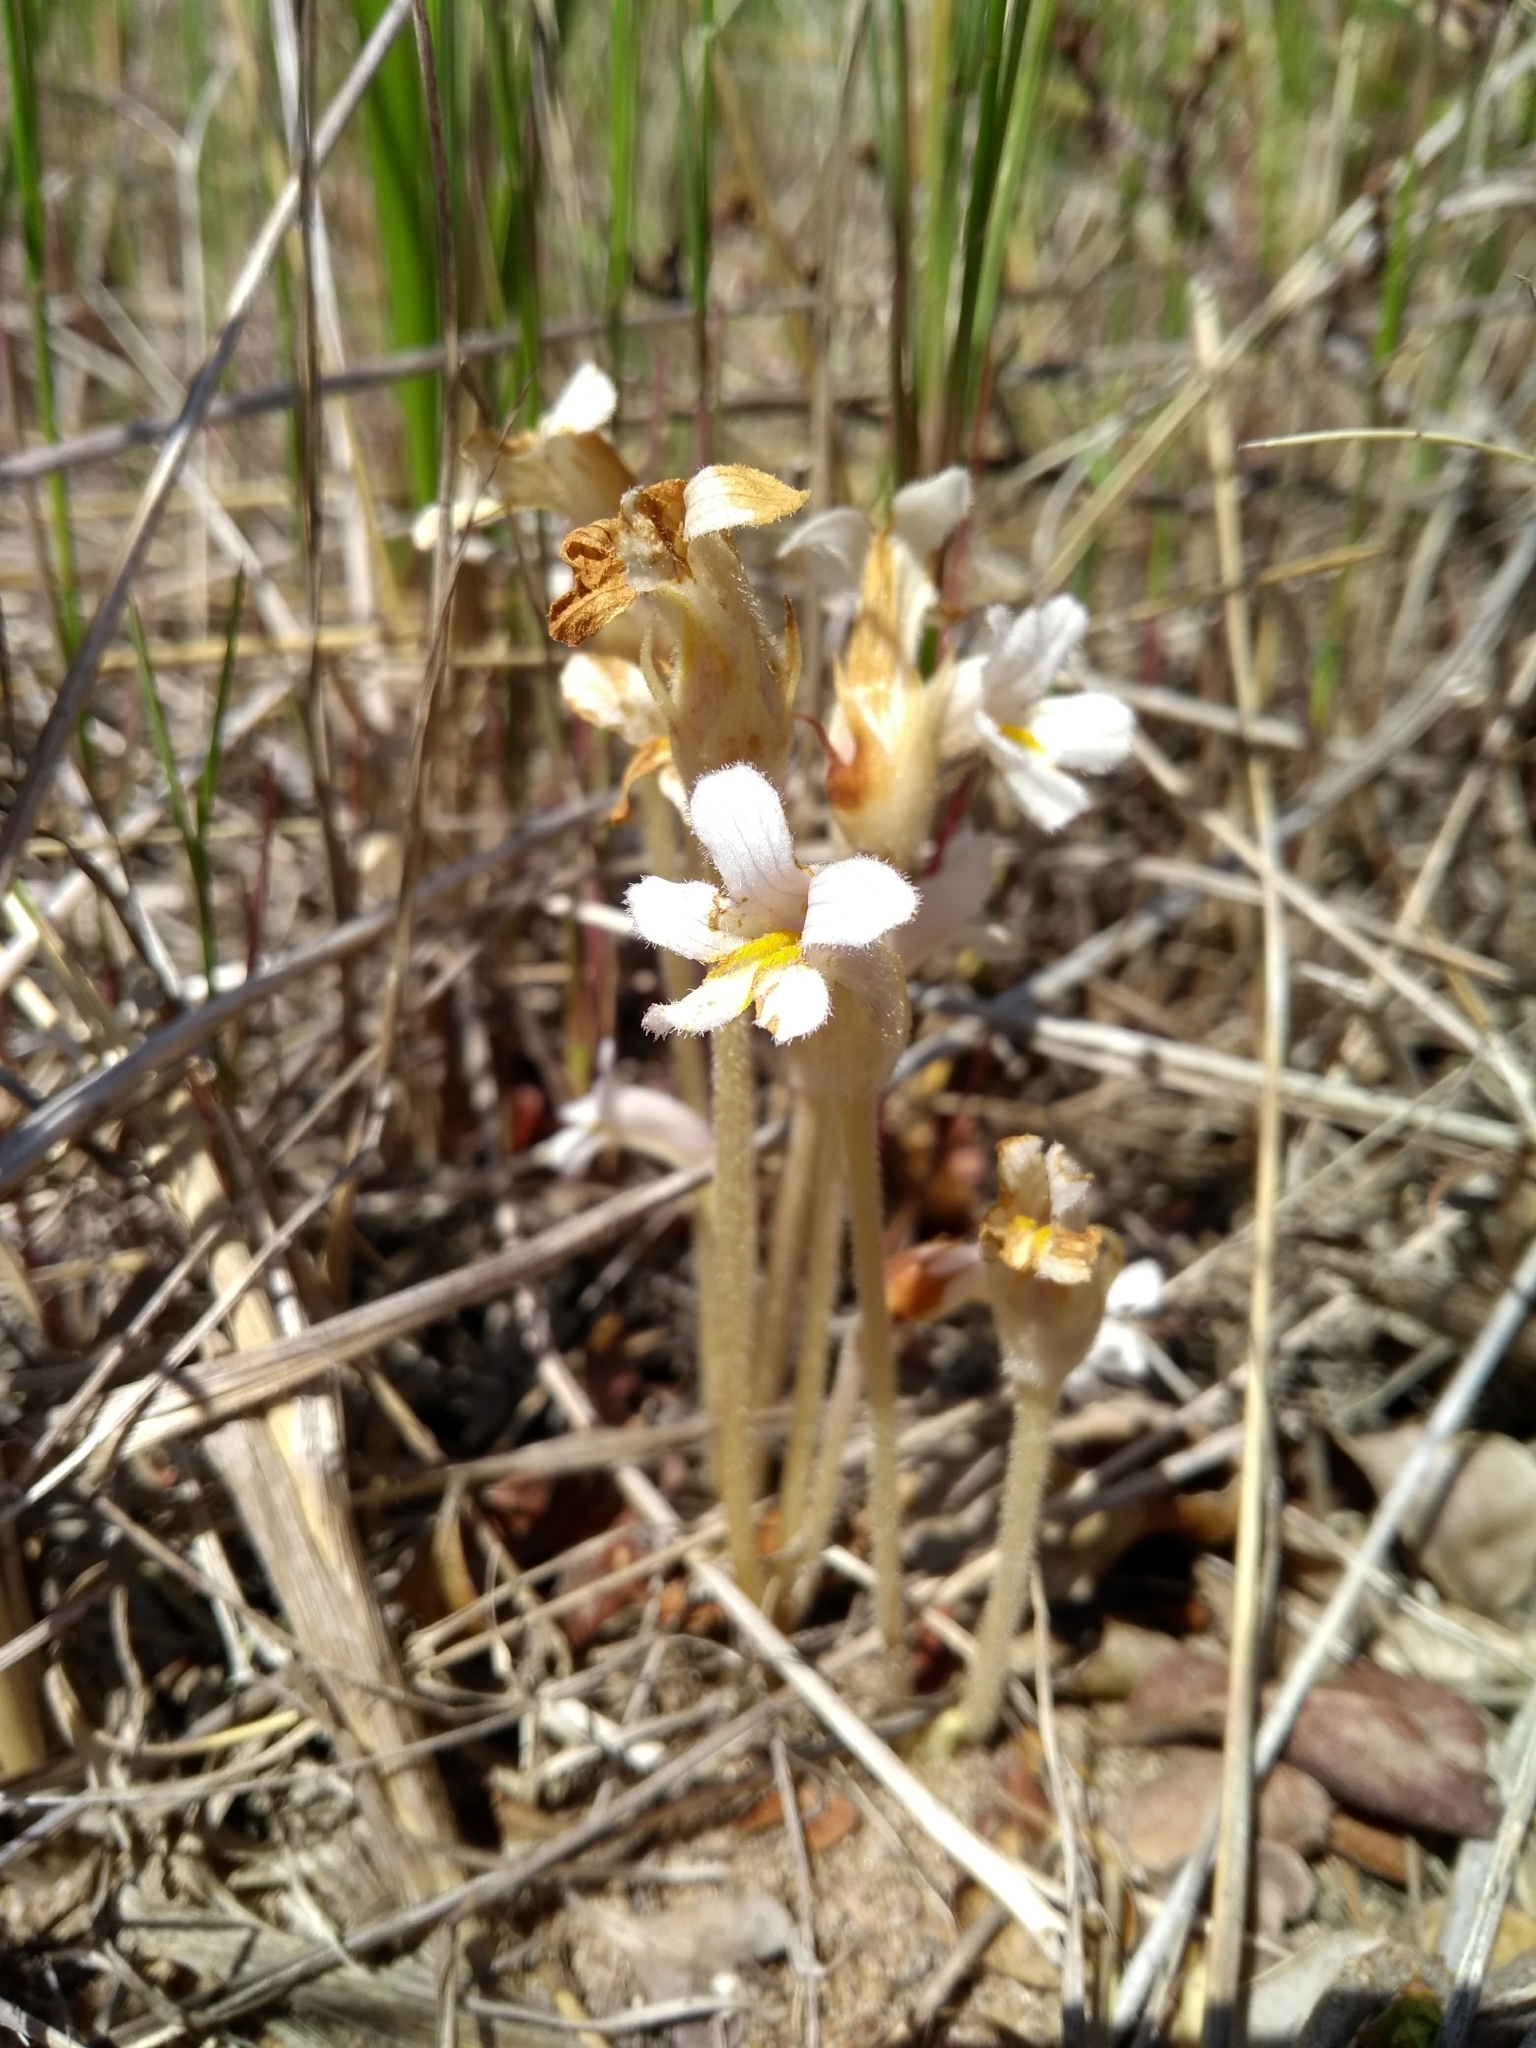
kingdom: Plantae
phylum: Tracheophyta
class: Magnoliopsida
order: Lamiales
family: Orobanchaceae
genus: Aphyllon
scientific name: Aphyllon uniflorum
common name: One-flowered broomrape
